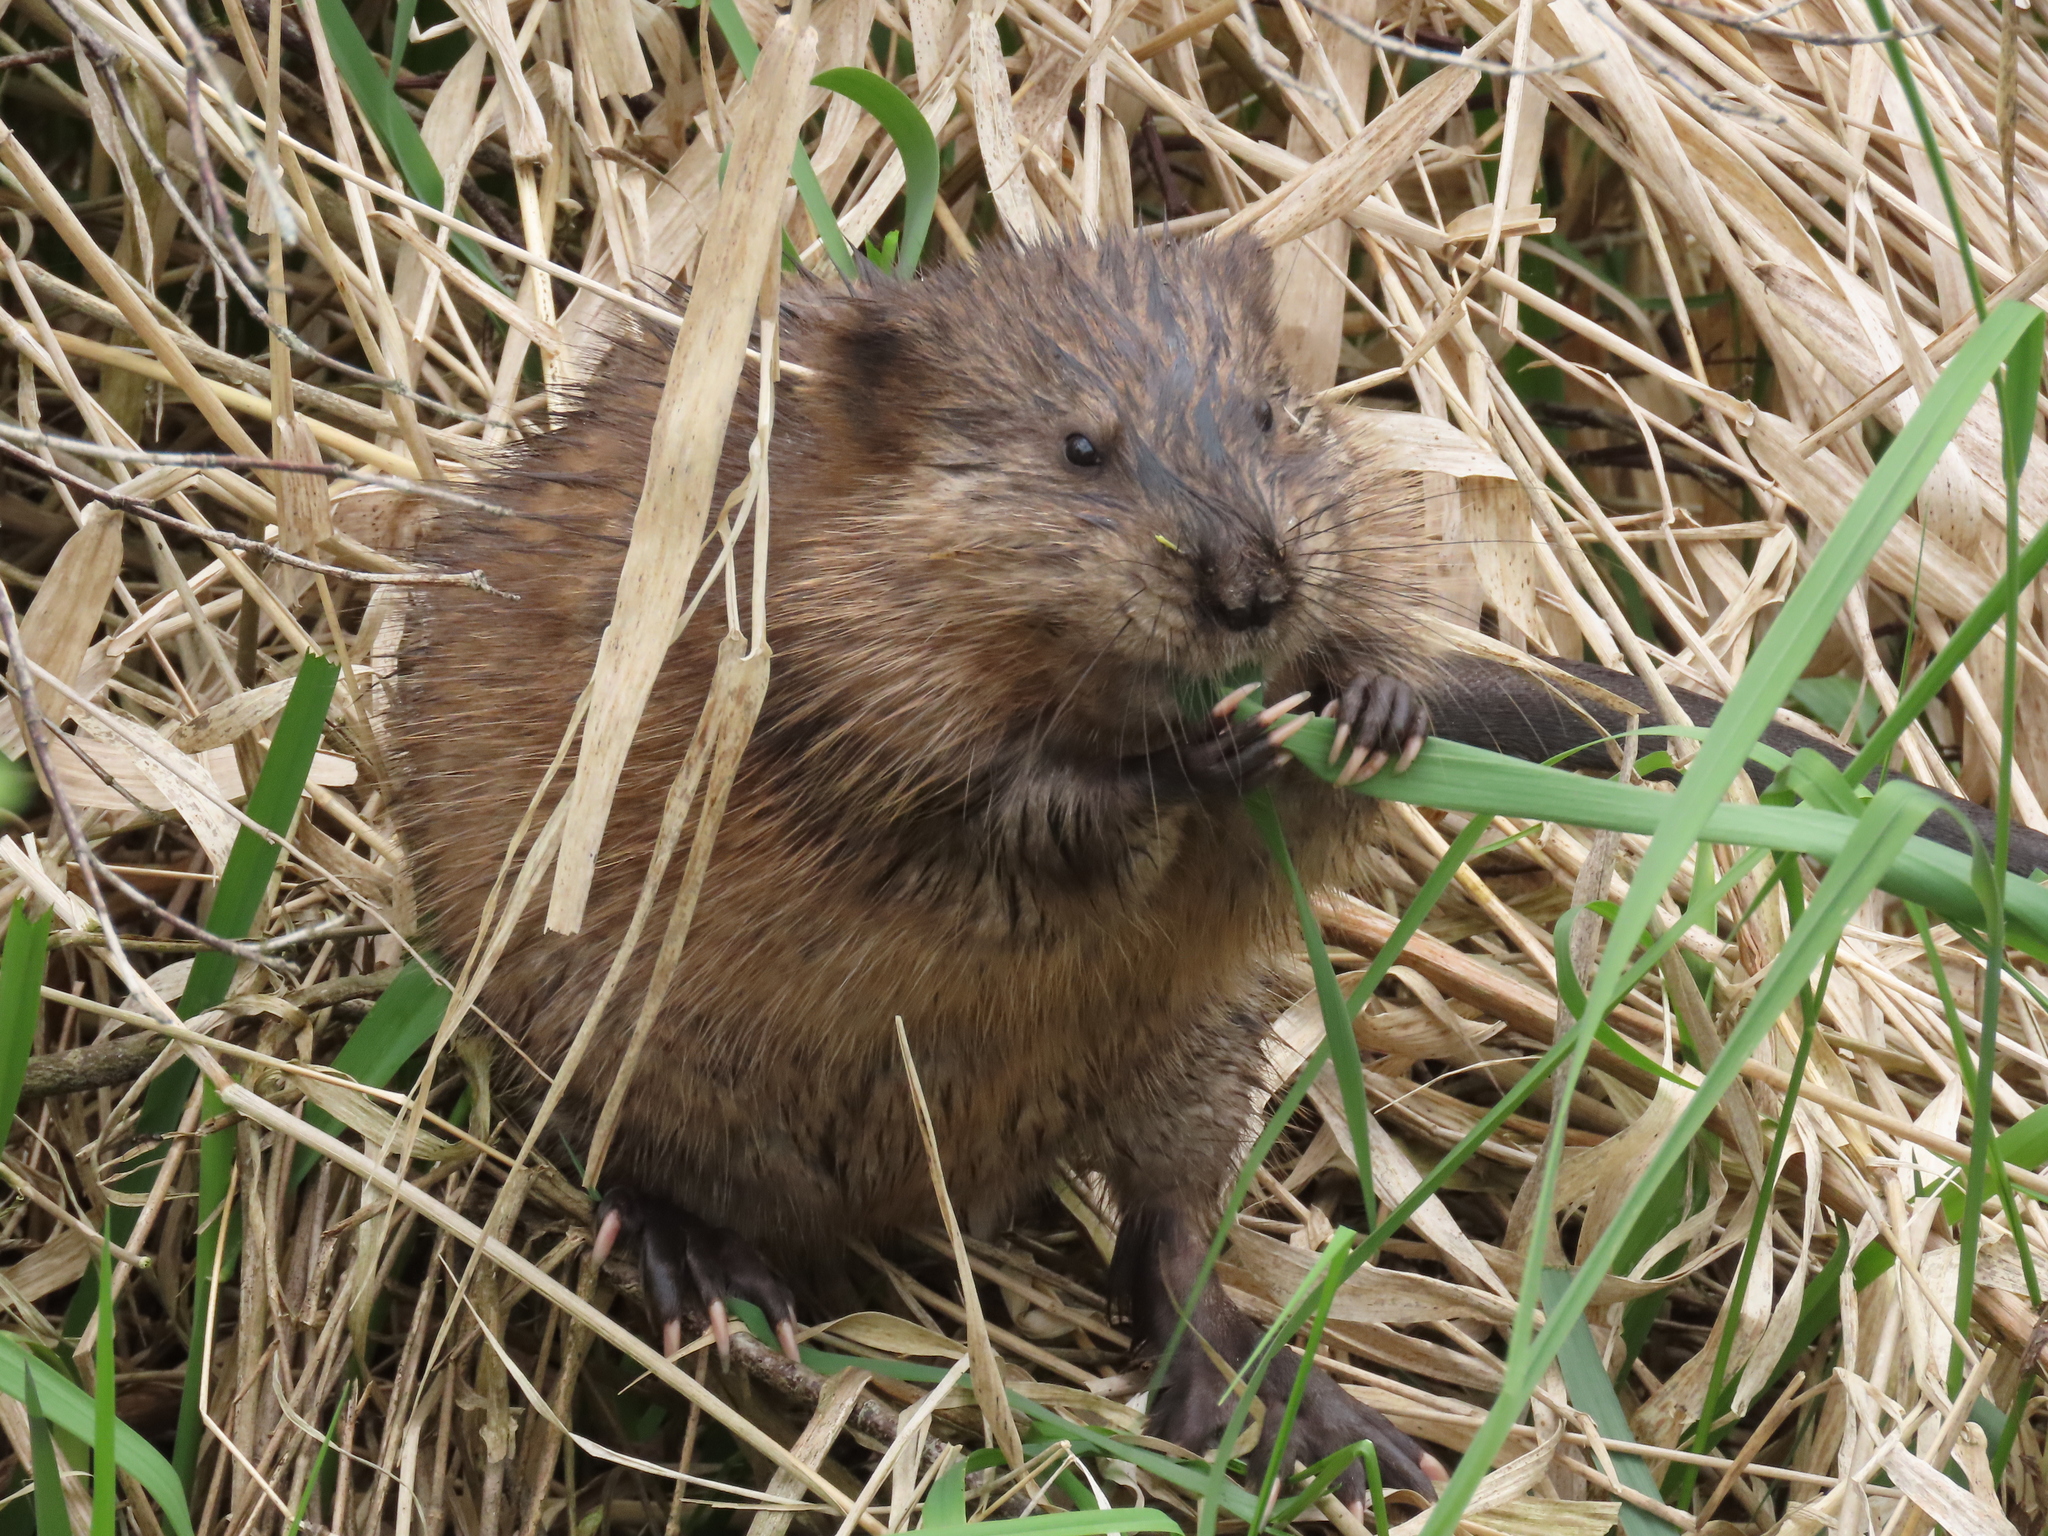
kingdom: Animalia
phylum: Chordata
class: Mammalia
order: Rodentia
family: Cricetidae
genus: Ondatra
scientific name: Ondatra zibethicus
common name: Muskrat
